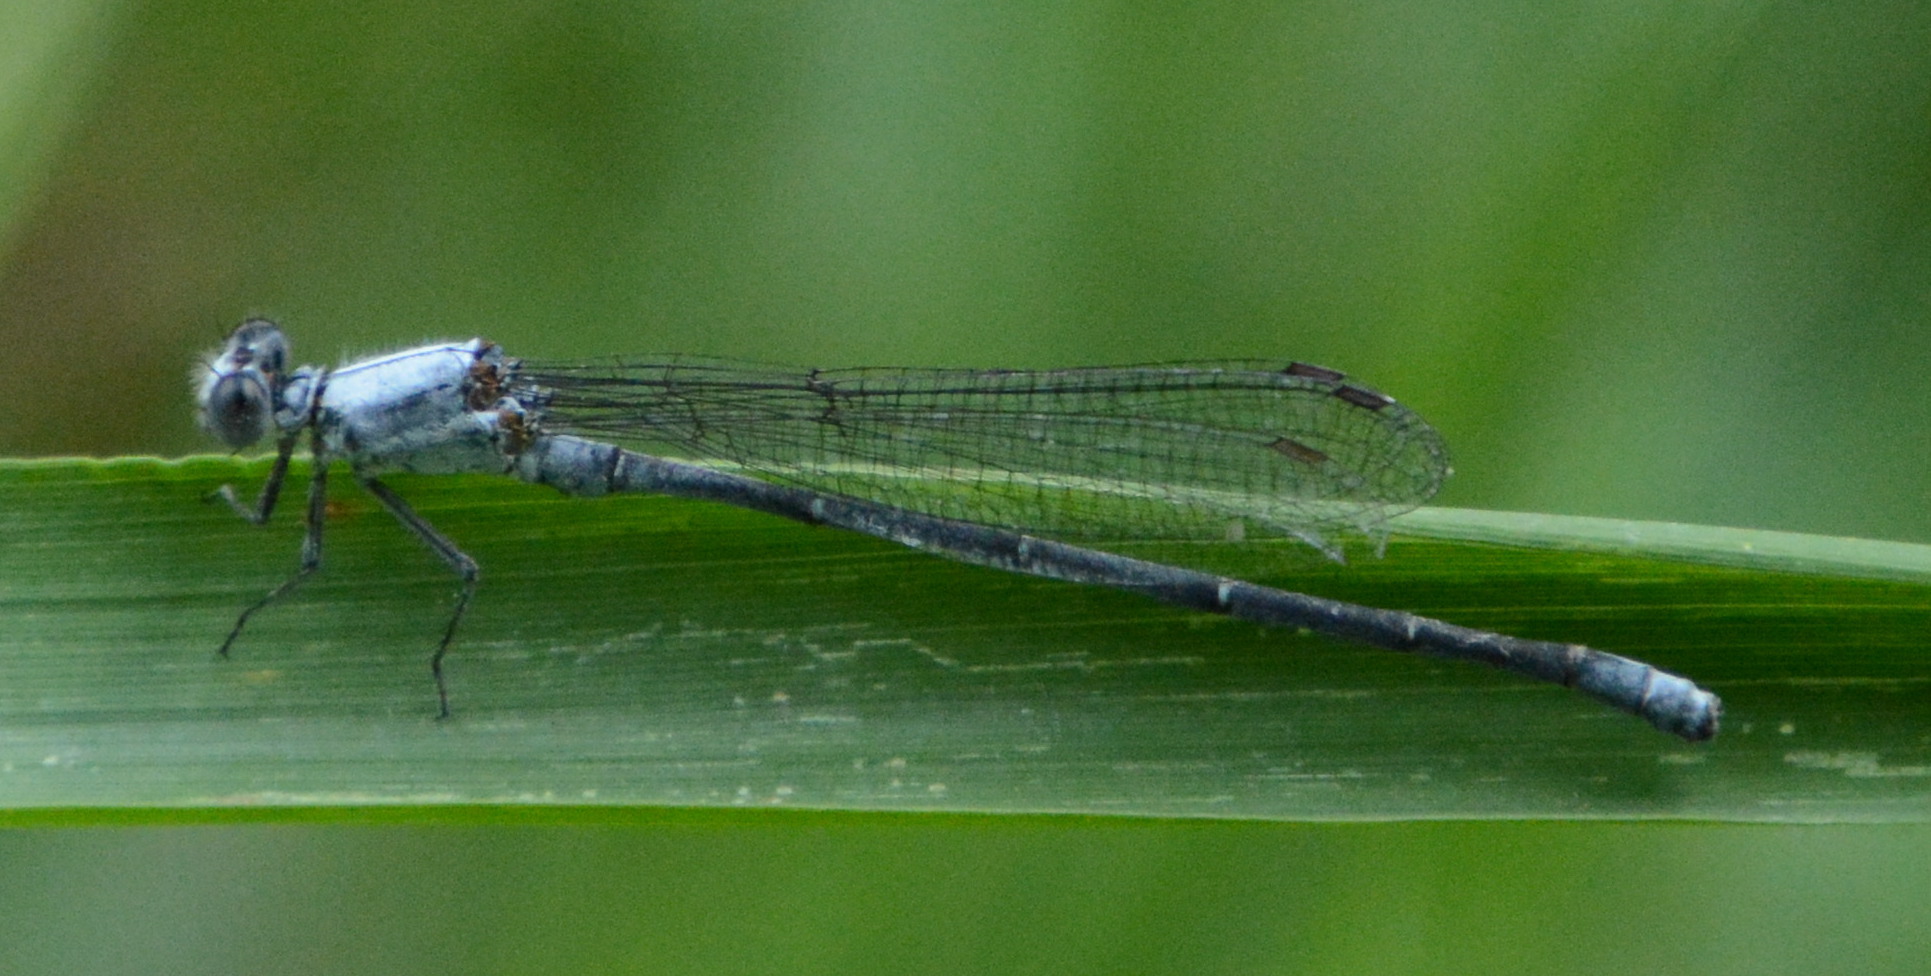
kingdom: Animalia
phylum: Arthropoda
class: Insecta
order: Odonata
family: Coenagrionidae
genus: Argia
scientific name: Argia moesta
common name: Powdered dancer
